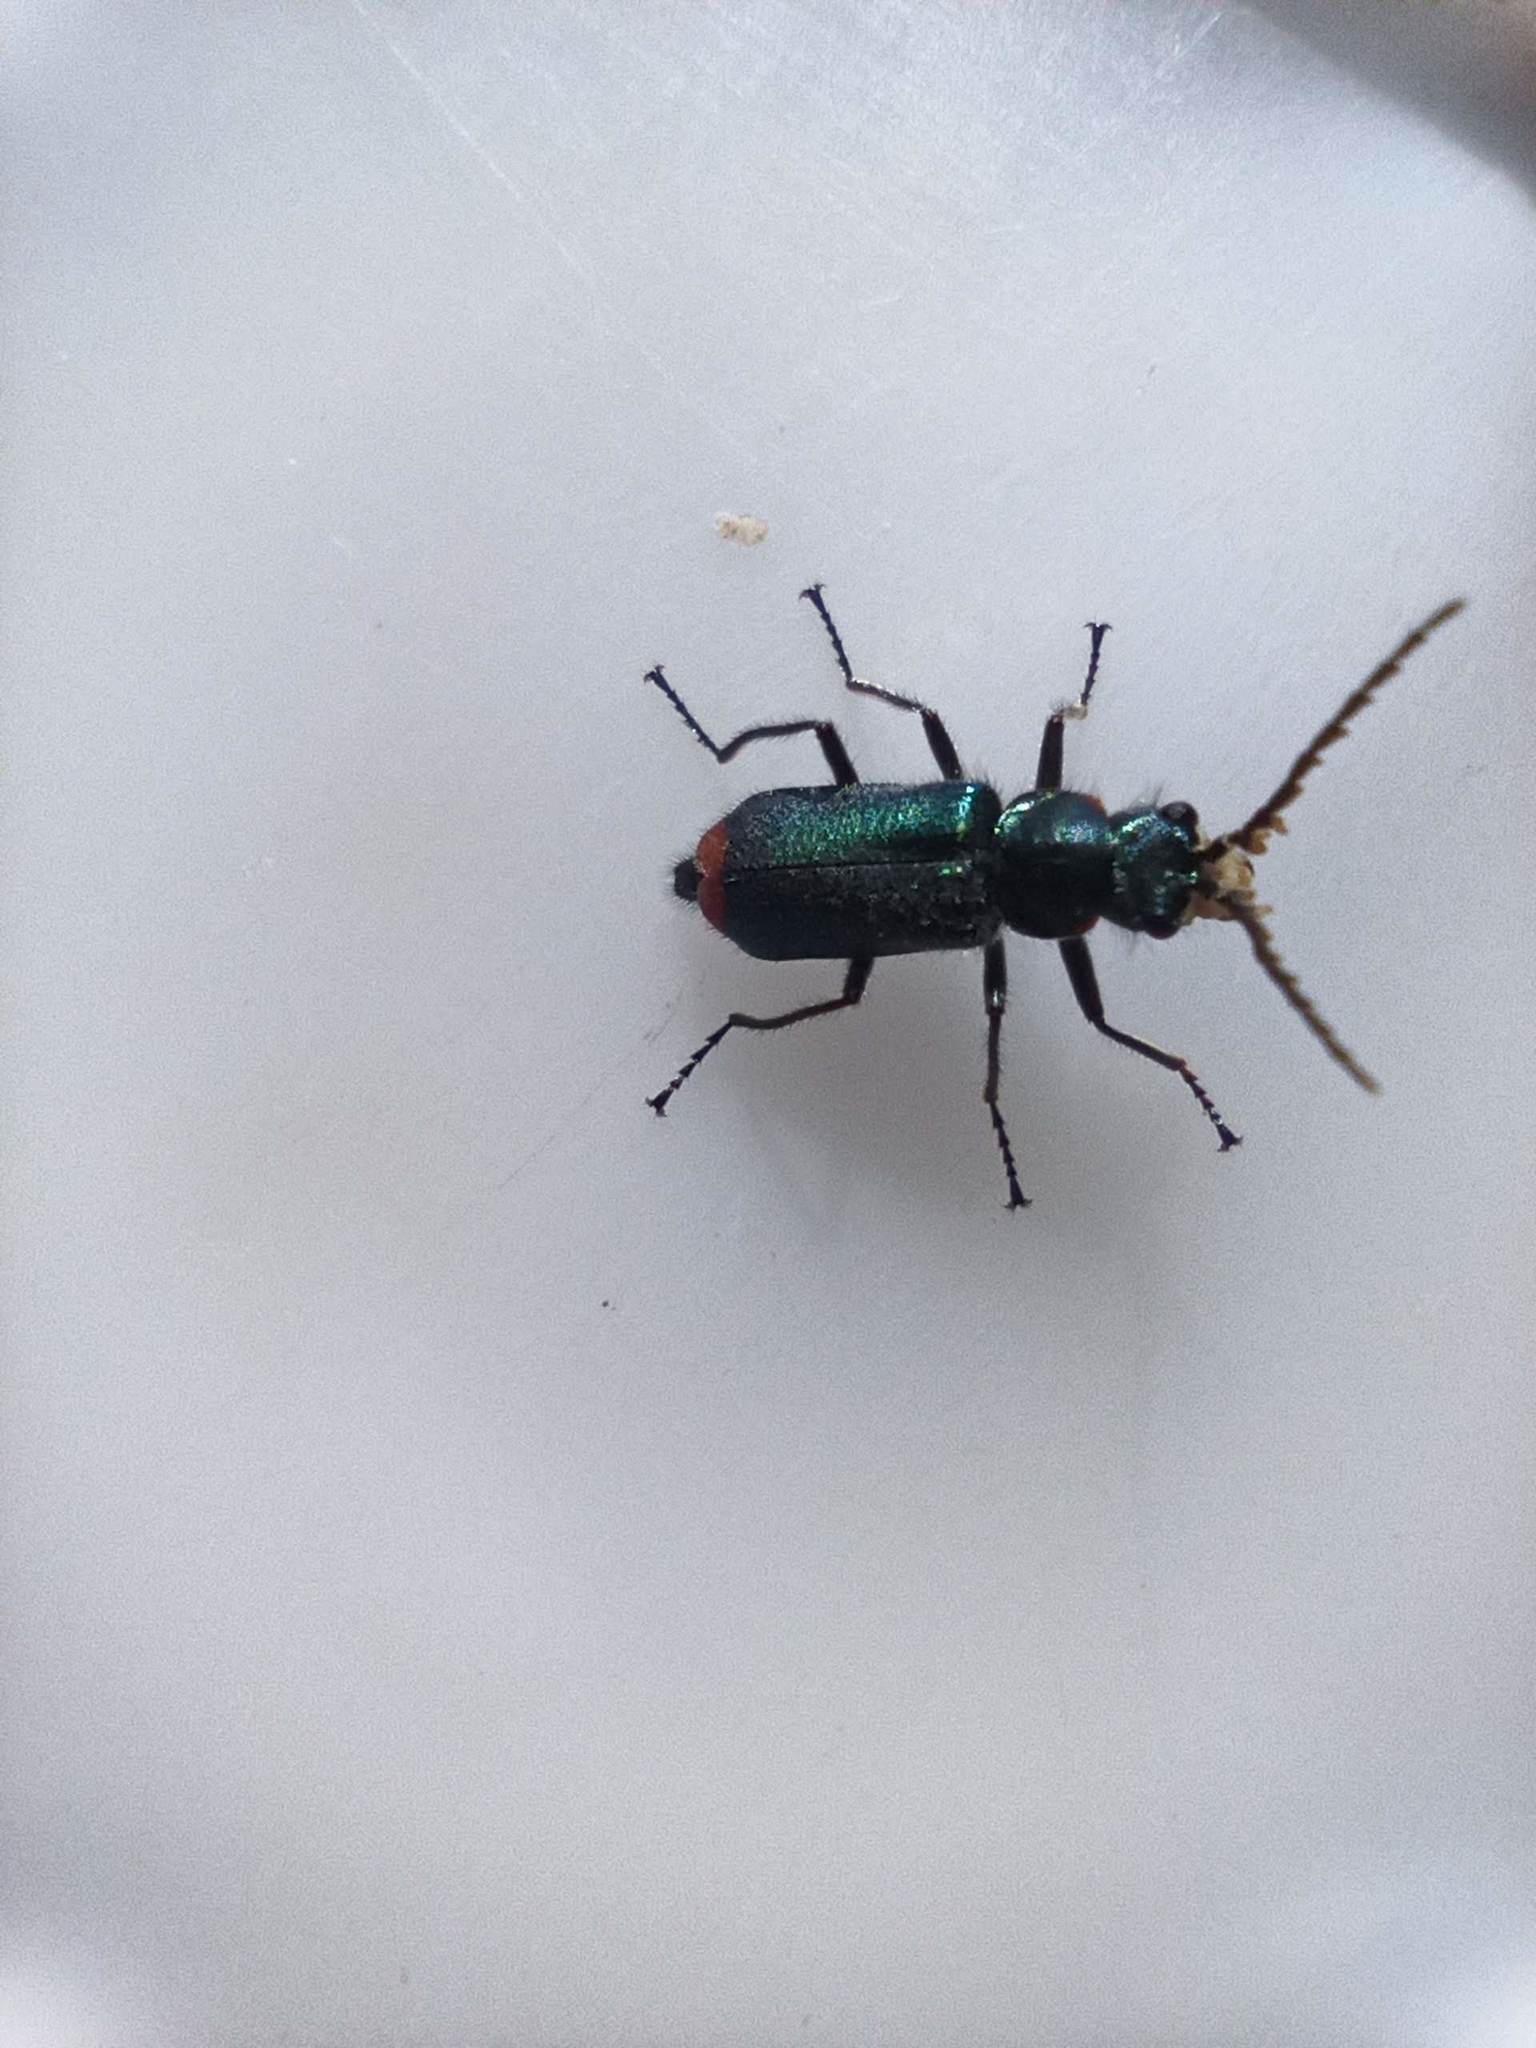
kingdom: Animalia
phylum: Arthropoda
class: Insecta
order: Coleoptera
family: Melyridae
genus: Malachius
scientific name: Malachius lusitanicus
